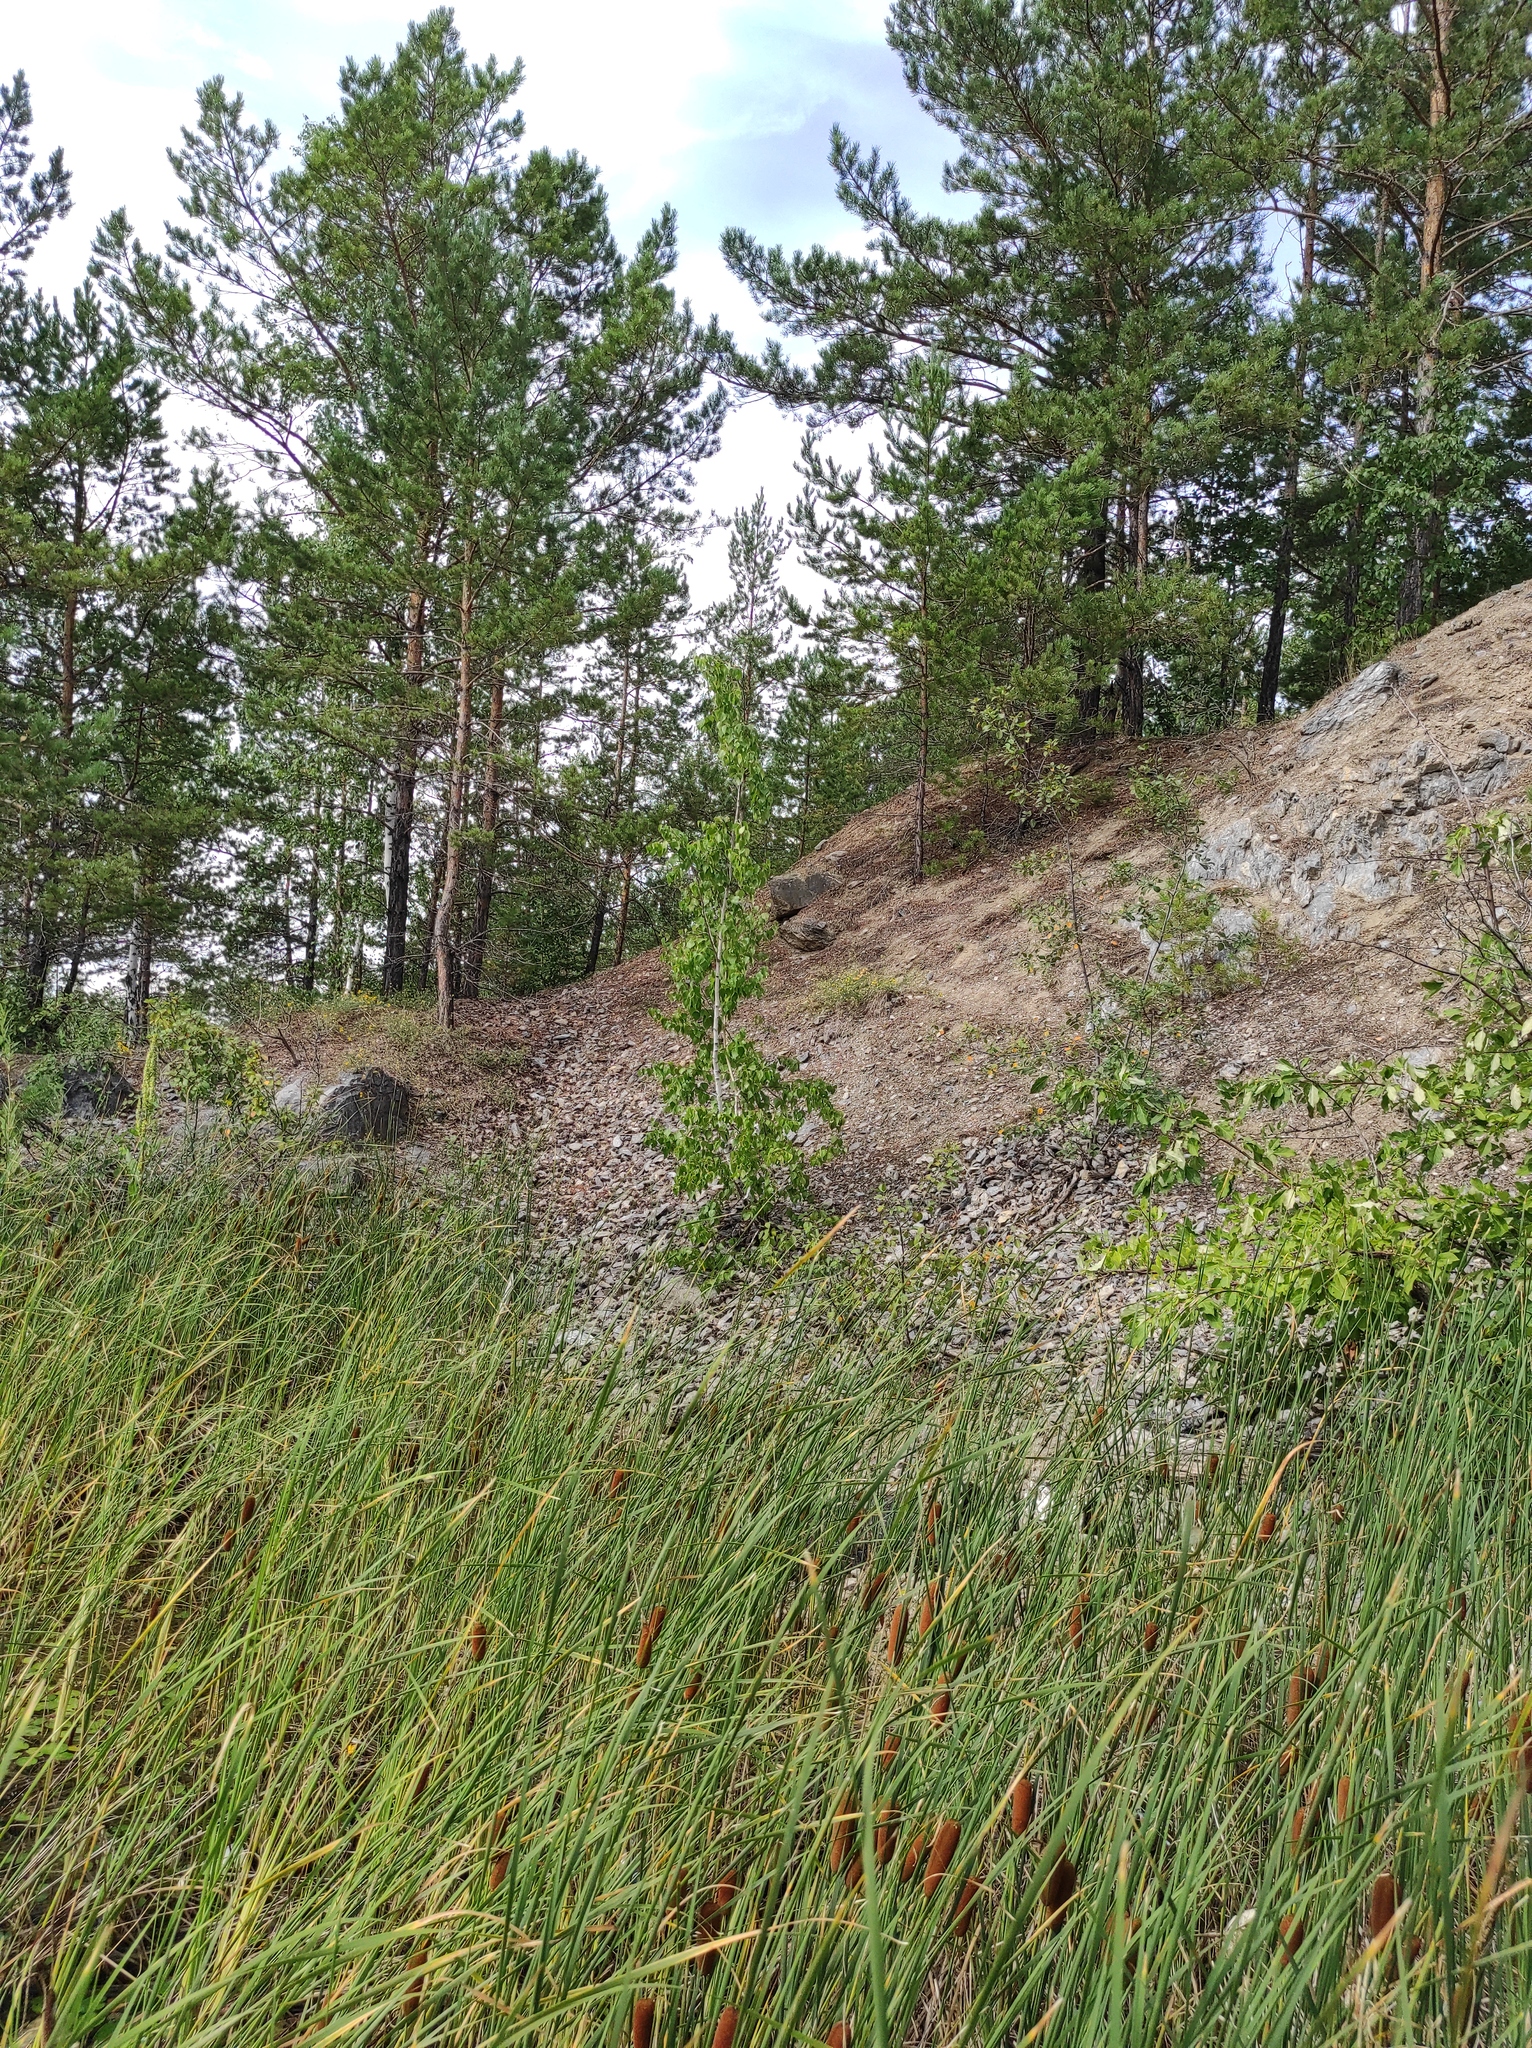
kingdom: Plantae
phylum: Tracheophyta
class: Pinopsida
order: Pinales
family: Pinaceae
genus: Pinus
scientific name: Pinus sylvestris
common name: Scots pine
